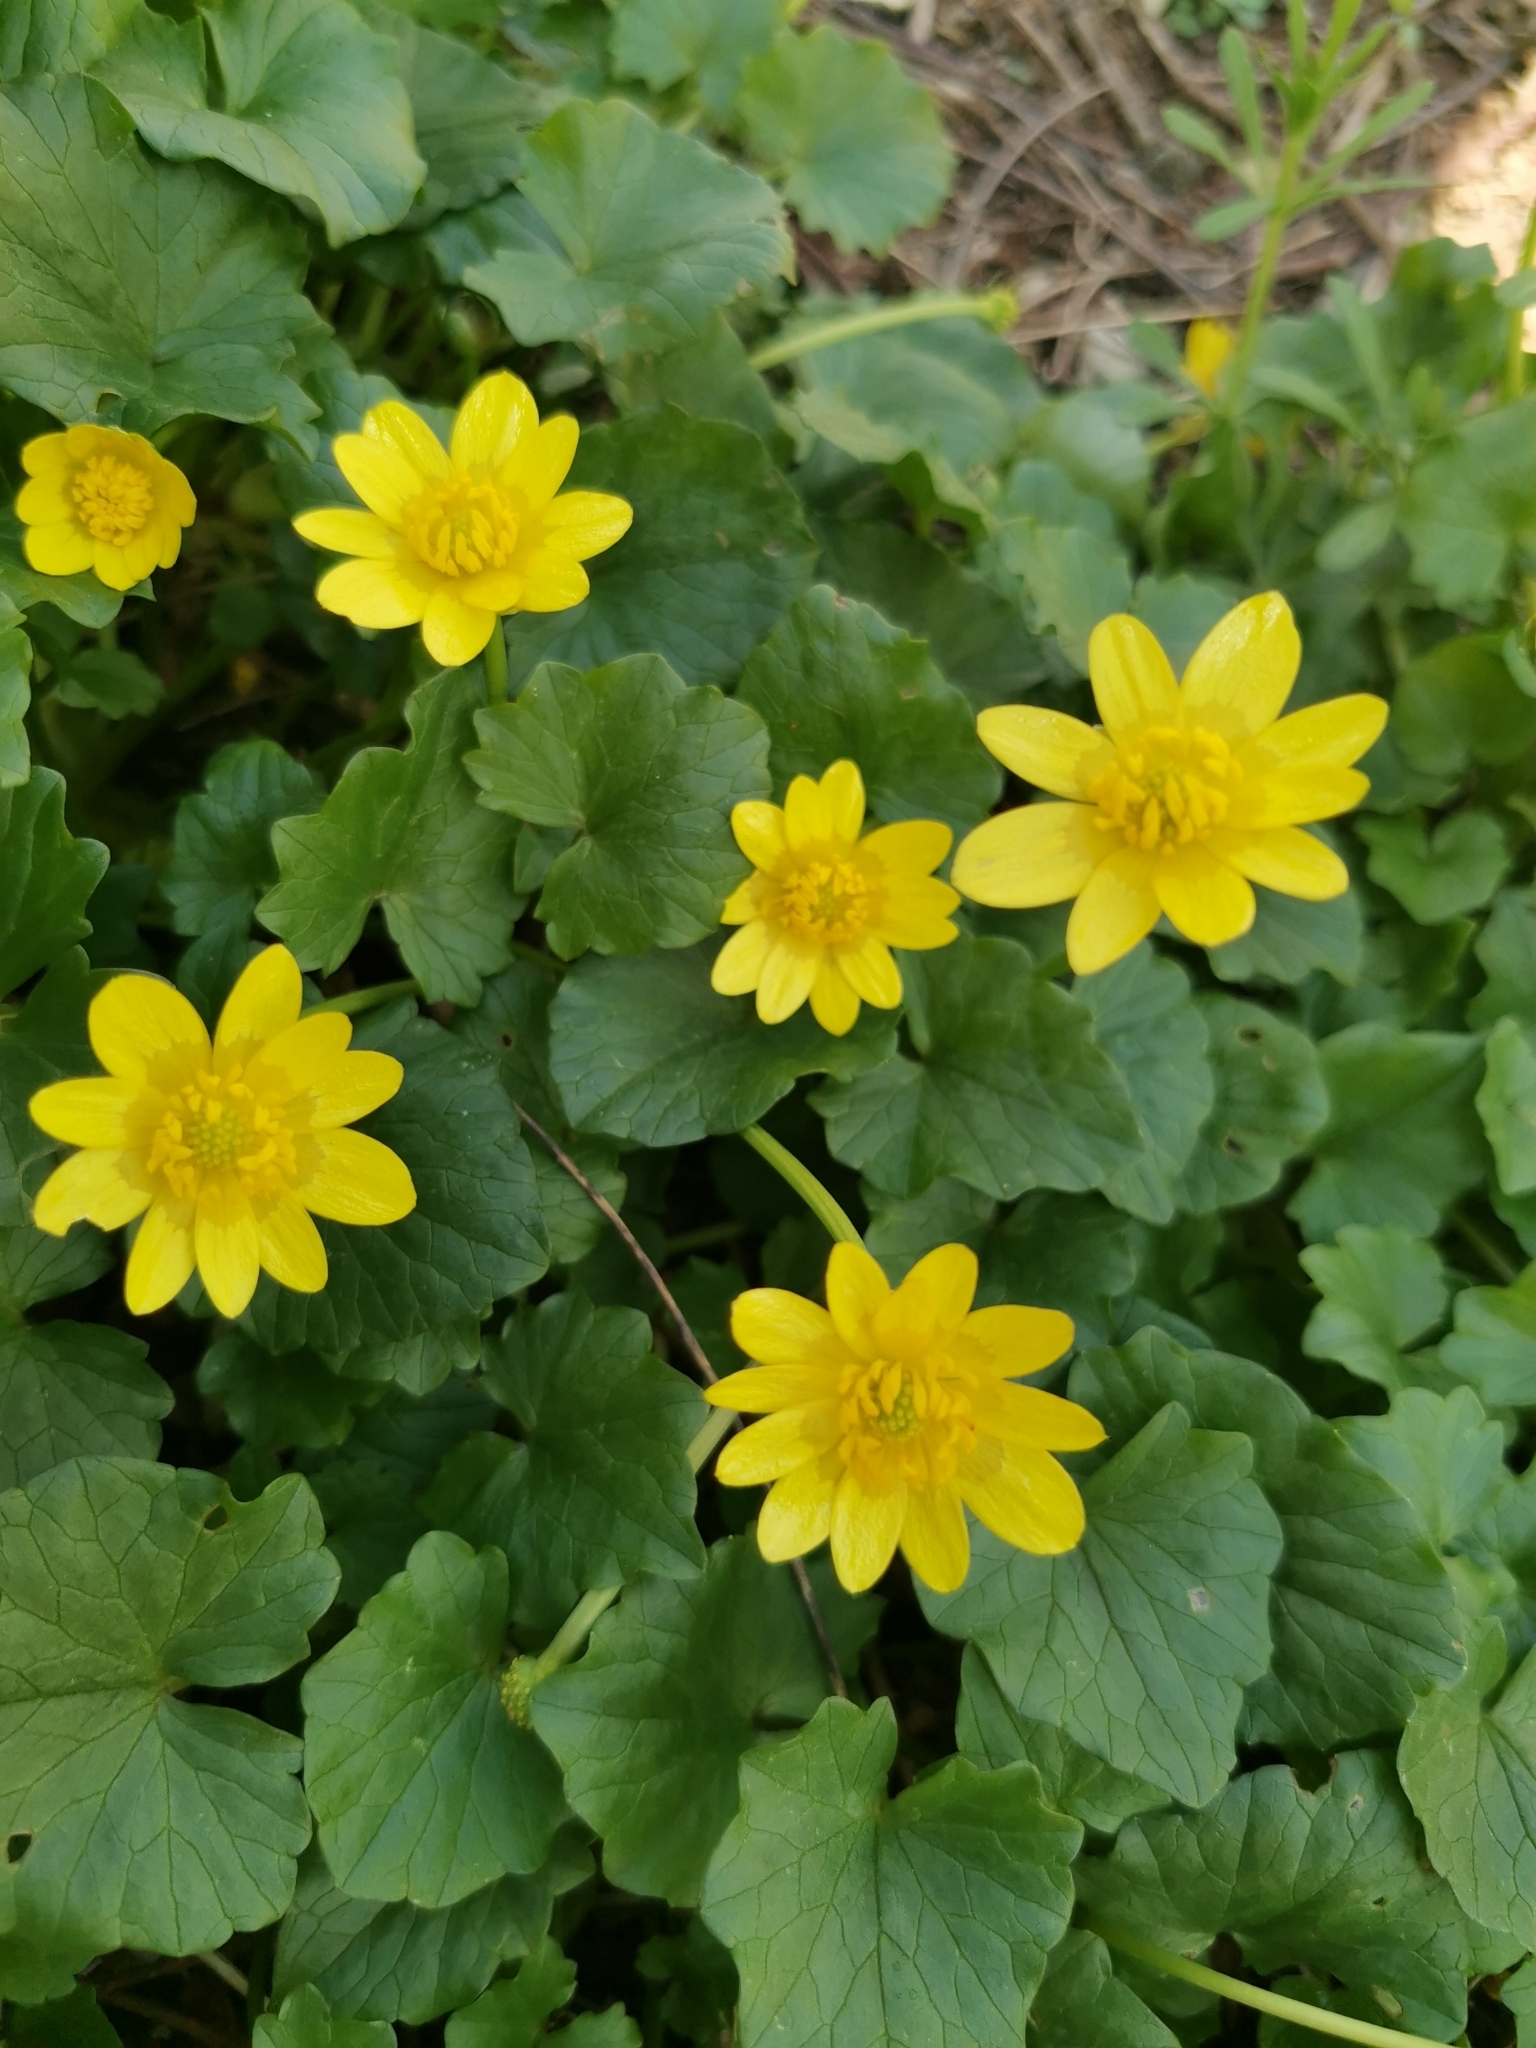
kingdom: Plantae
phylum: Tracheophyta
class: Magnoliopsida
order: Ranunculales
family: Ranunculaceae
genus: Ficaria
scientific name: Ficaria verna
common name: Lesser celandine
